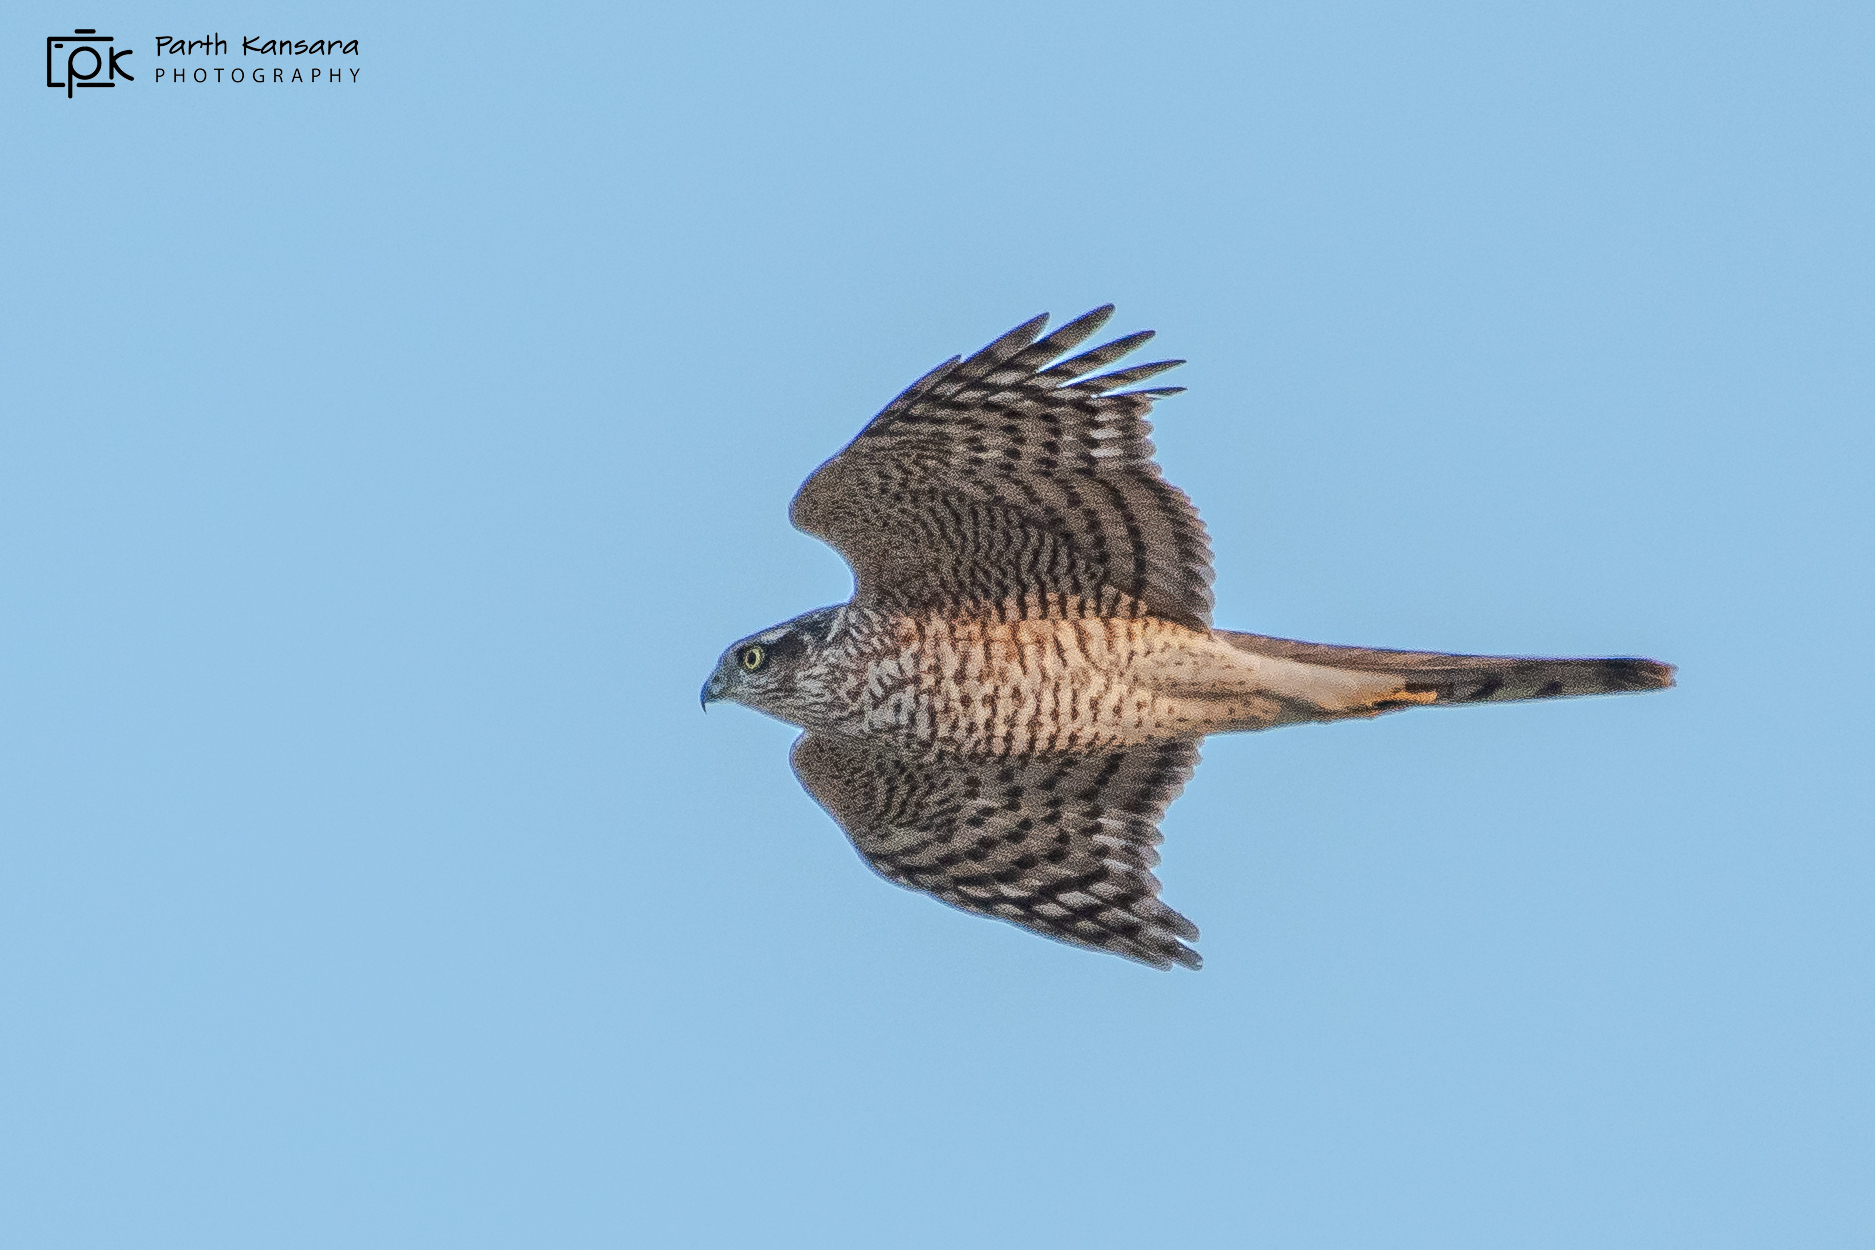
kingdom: Animalia
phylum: Chordata
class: Aves
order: Accipitriformes
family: Accipitridae
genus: Accipiter
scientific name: Accipiter nisus
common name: Eurasian sparrowhawk
